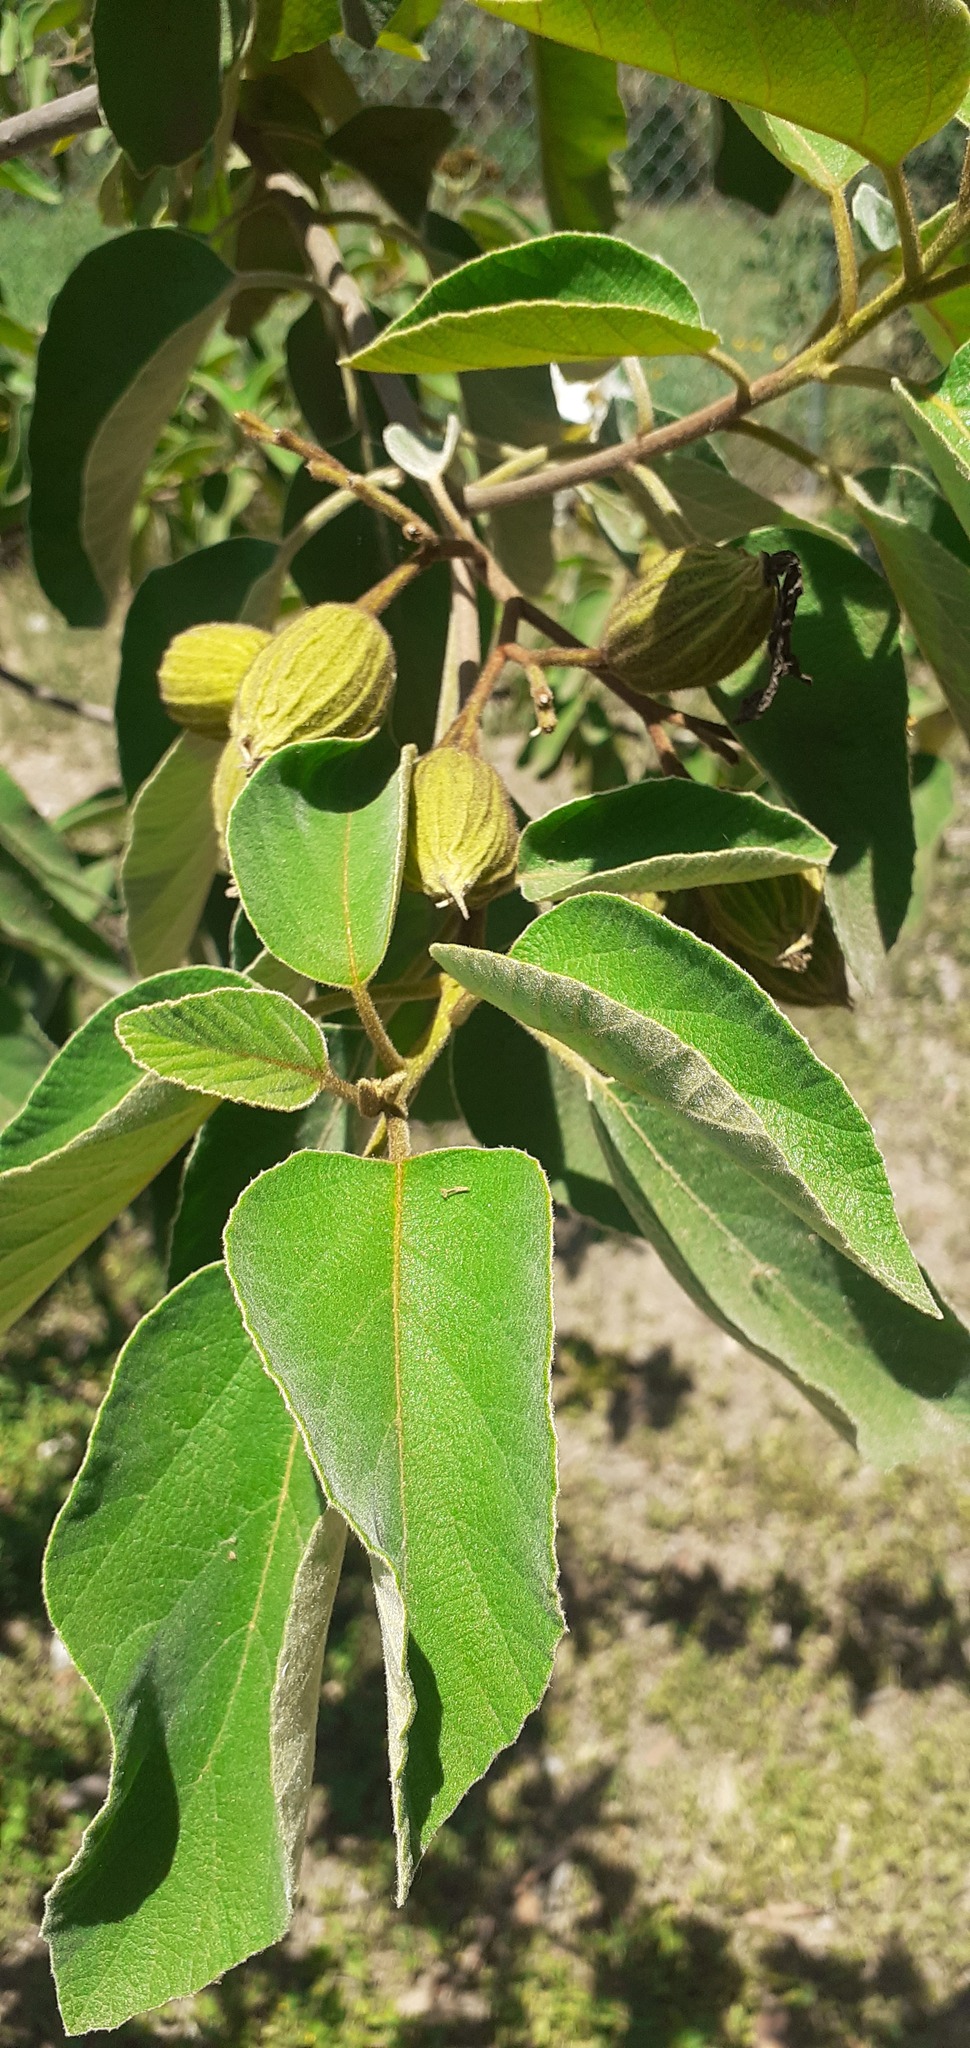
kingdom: Plantae
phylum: Tracheophyta
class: Magnoliopsida
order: Boraginales
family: Cordiaceae
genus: Cordia
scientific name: Cordia boissieri
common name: Mexican-olive
